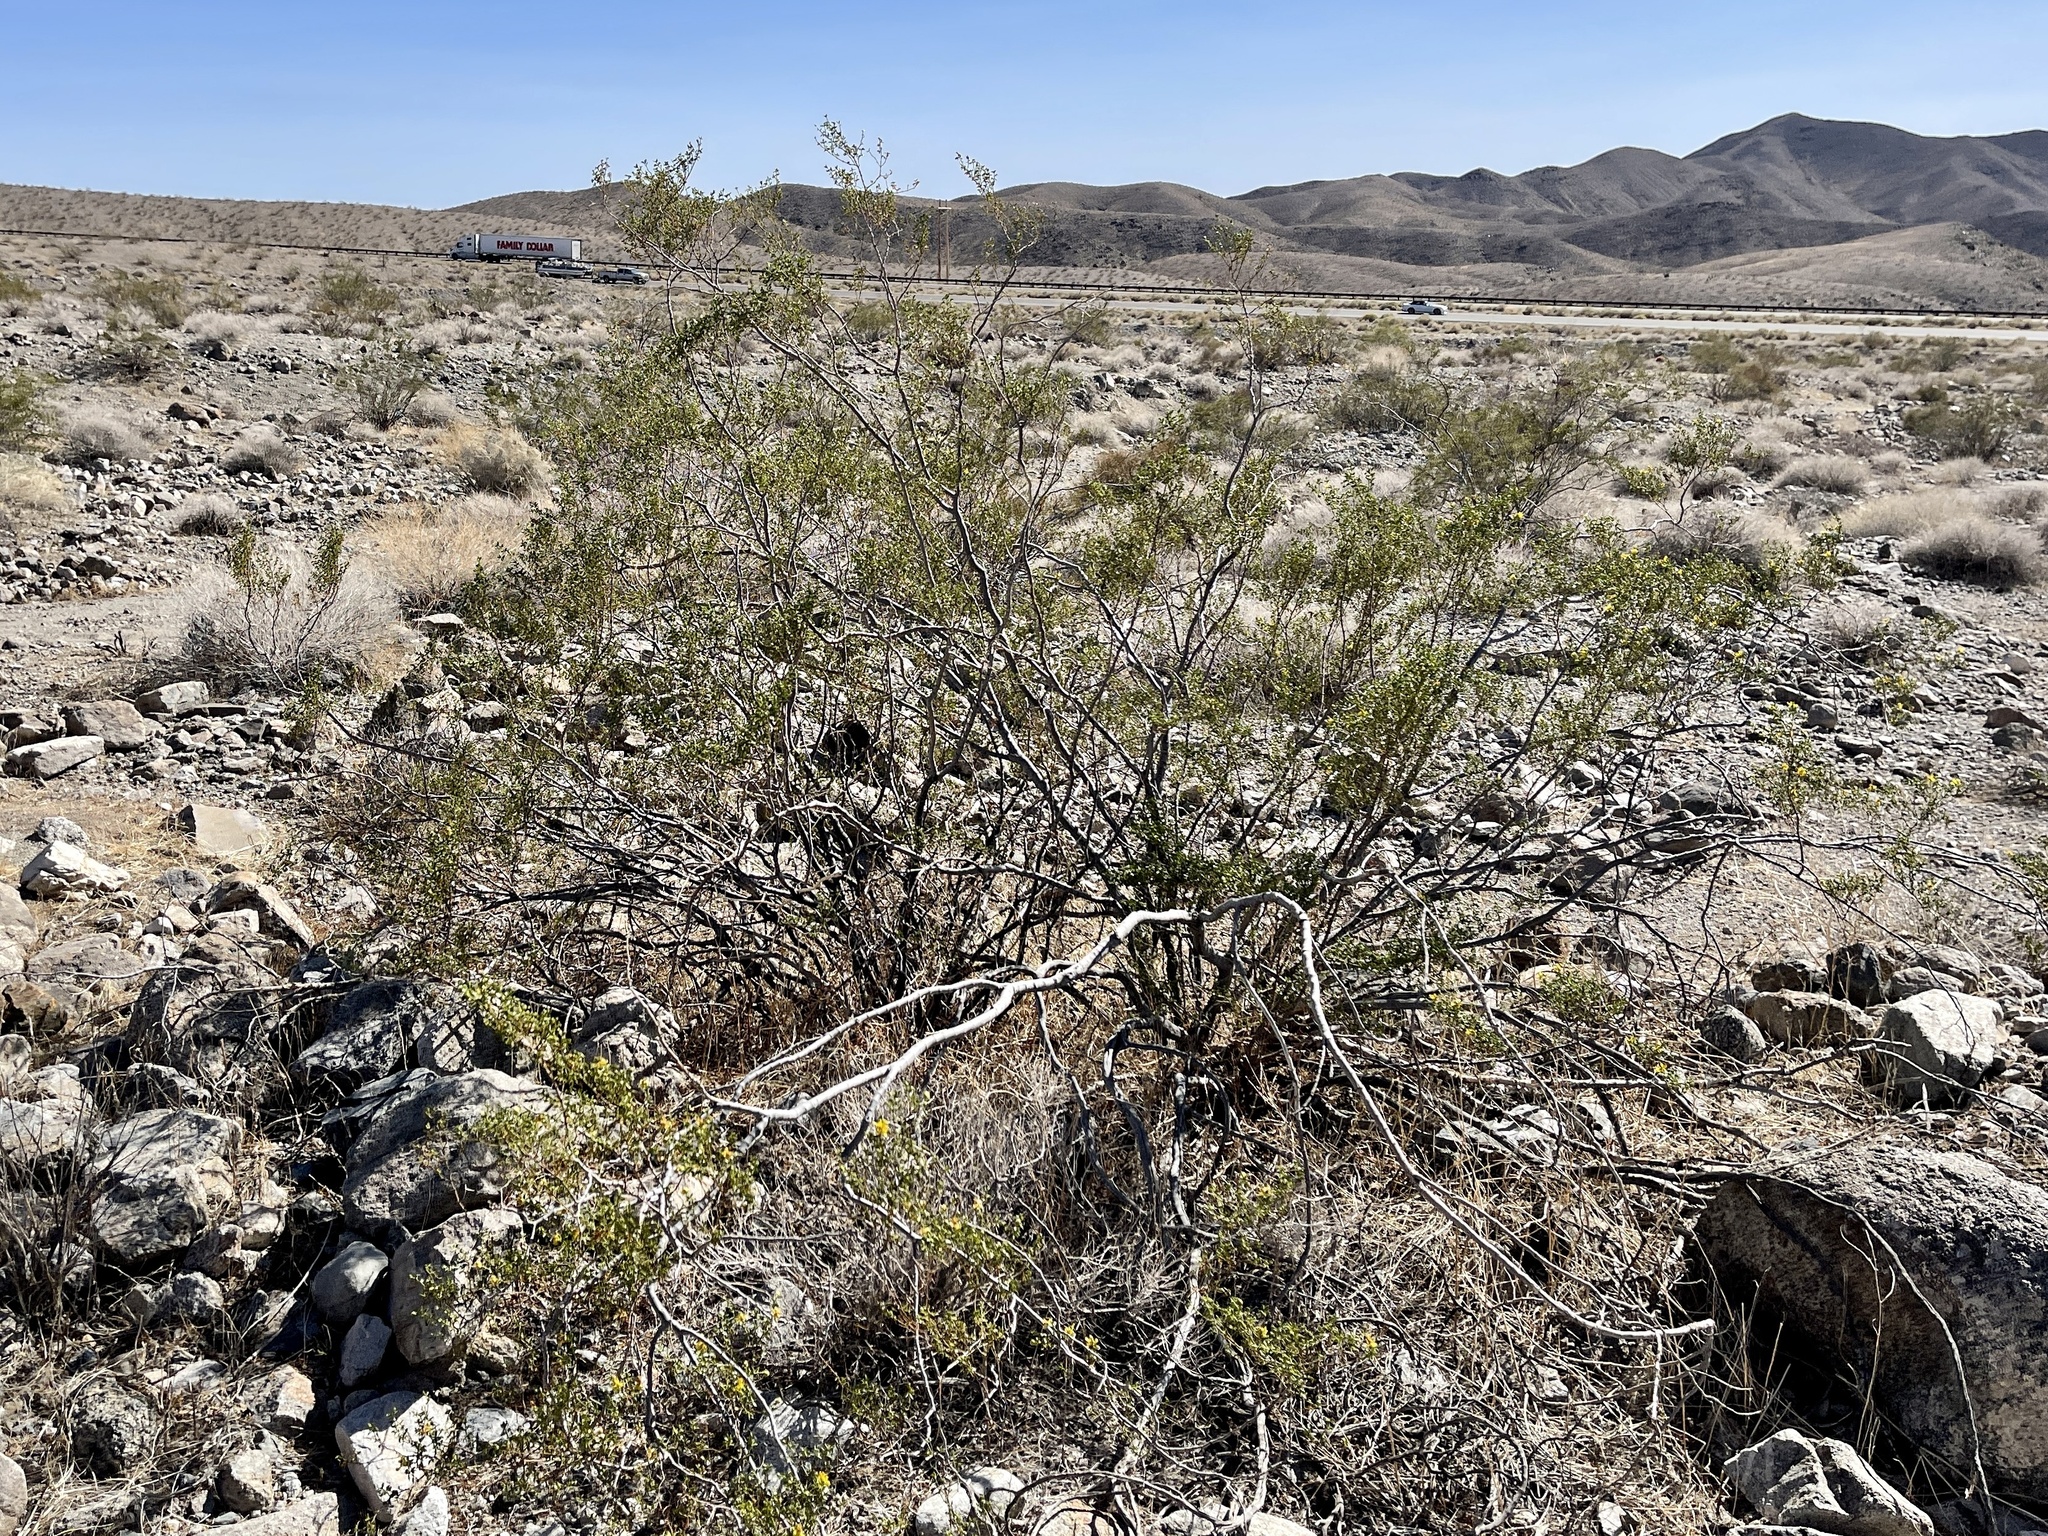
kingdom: Plantae
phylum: Tracheophyta
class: Magnoliopsida
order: Zygophyllales
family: Zygophyllaceae
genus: Larrea
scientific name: Larrea tridentata
